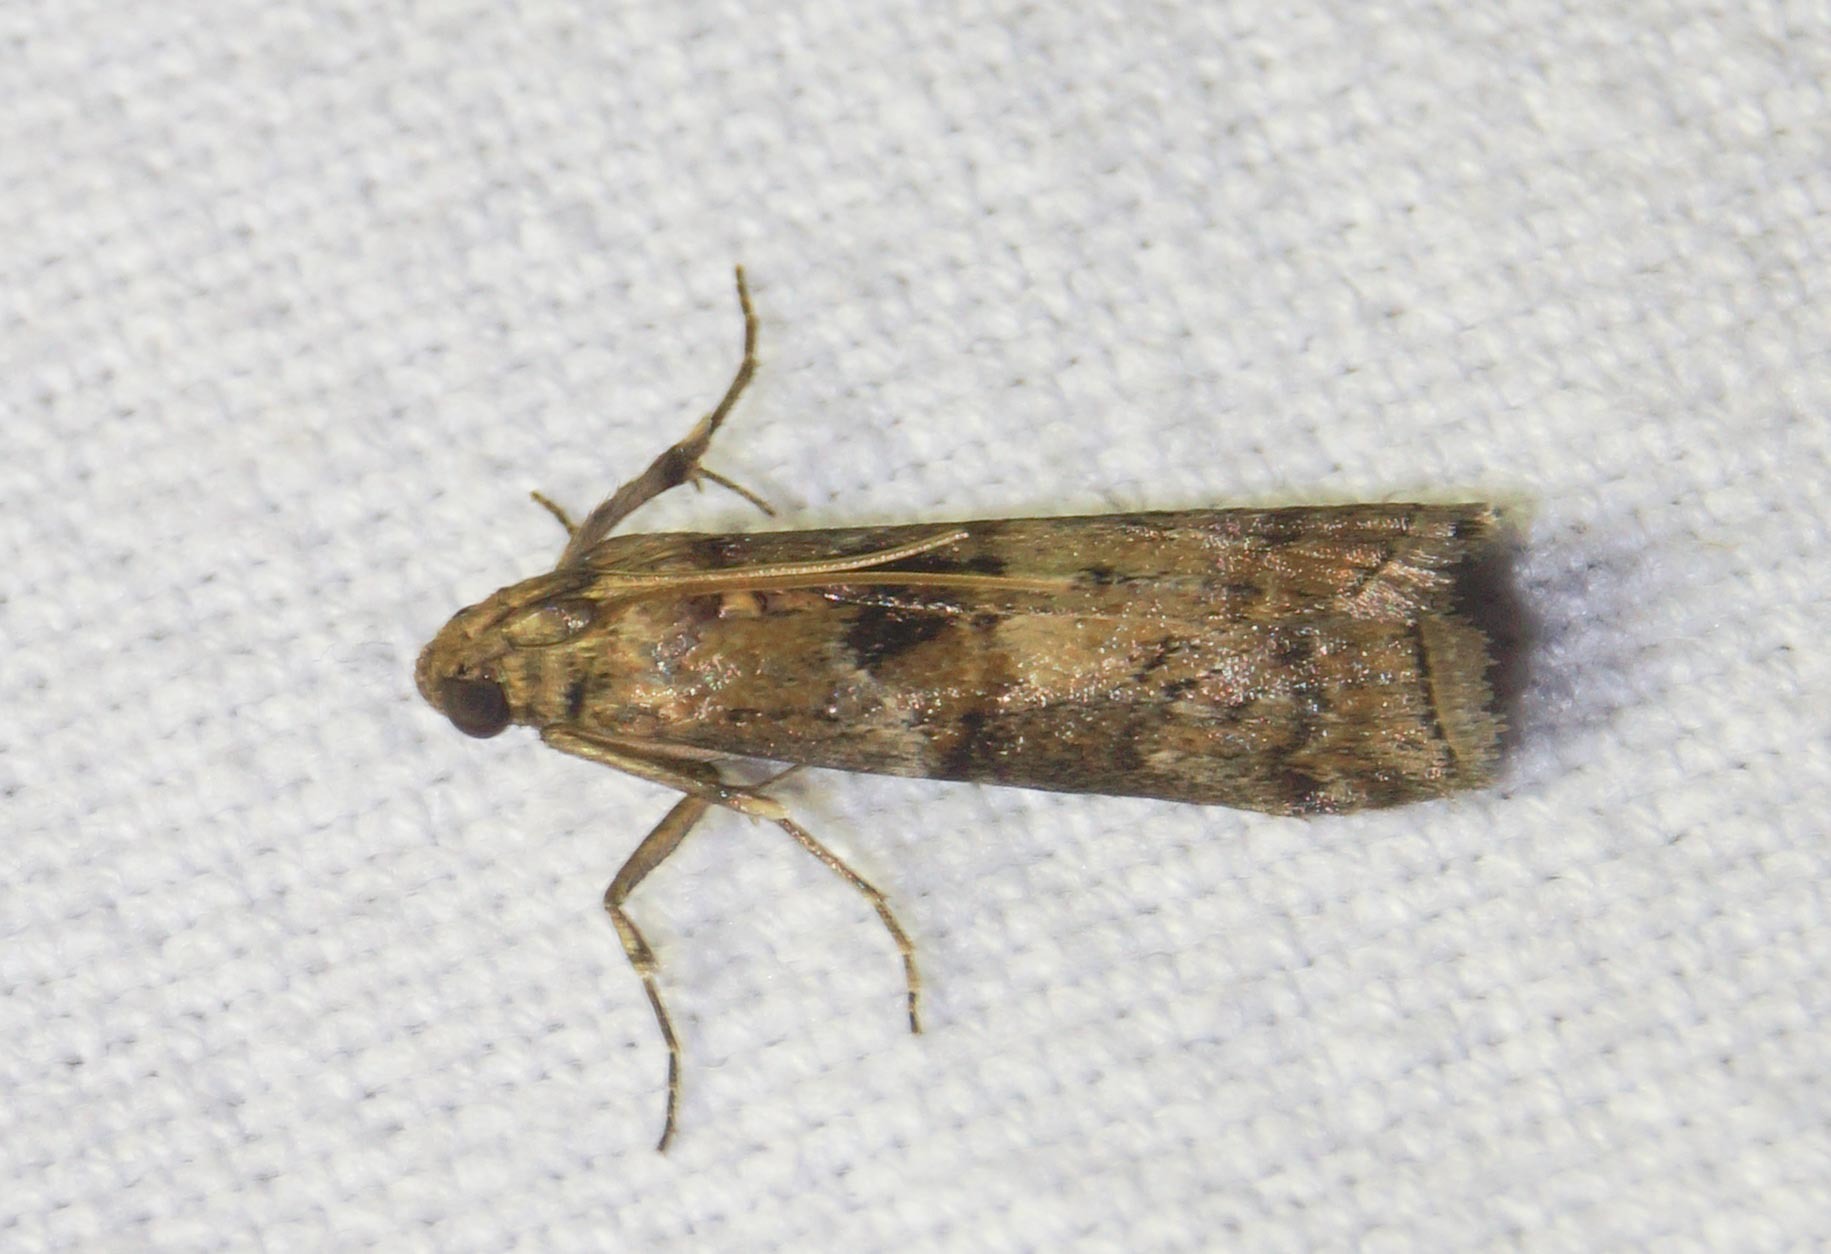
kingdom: Animalia
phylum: Arthropoda
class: Insecta
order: Lepidoptera
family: Pyralidae
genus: Phycita
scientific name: Phycita roborella
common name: Dotted oak knot-horn
